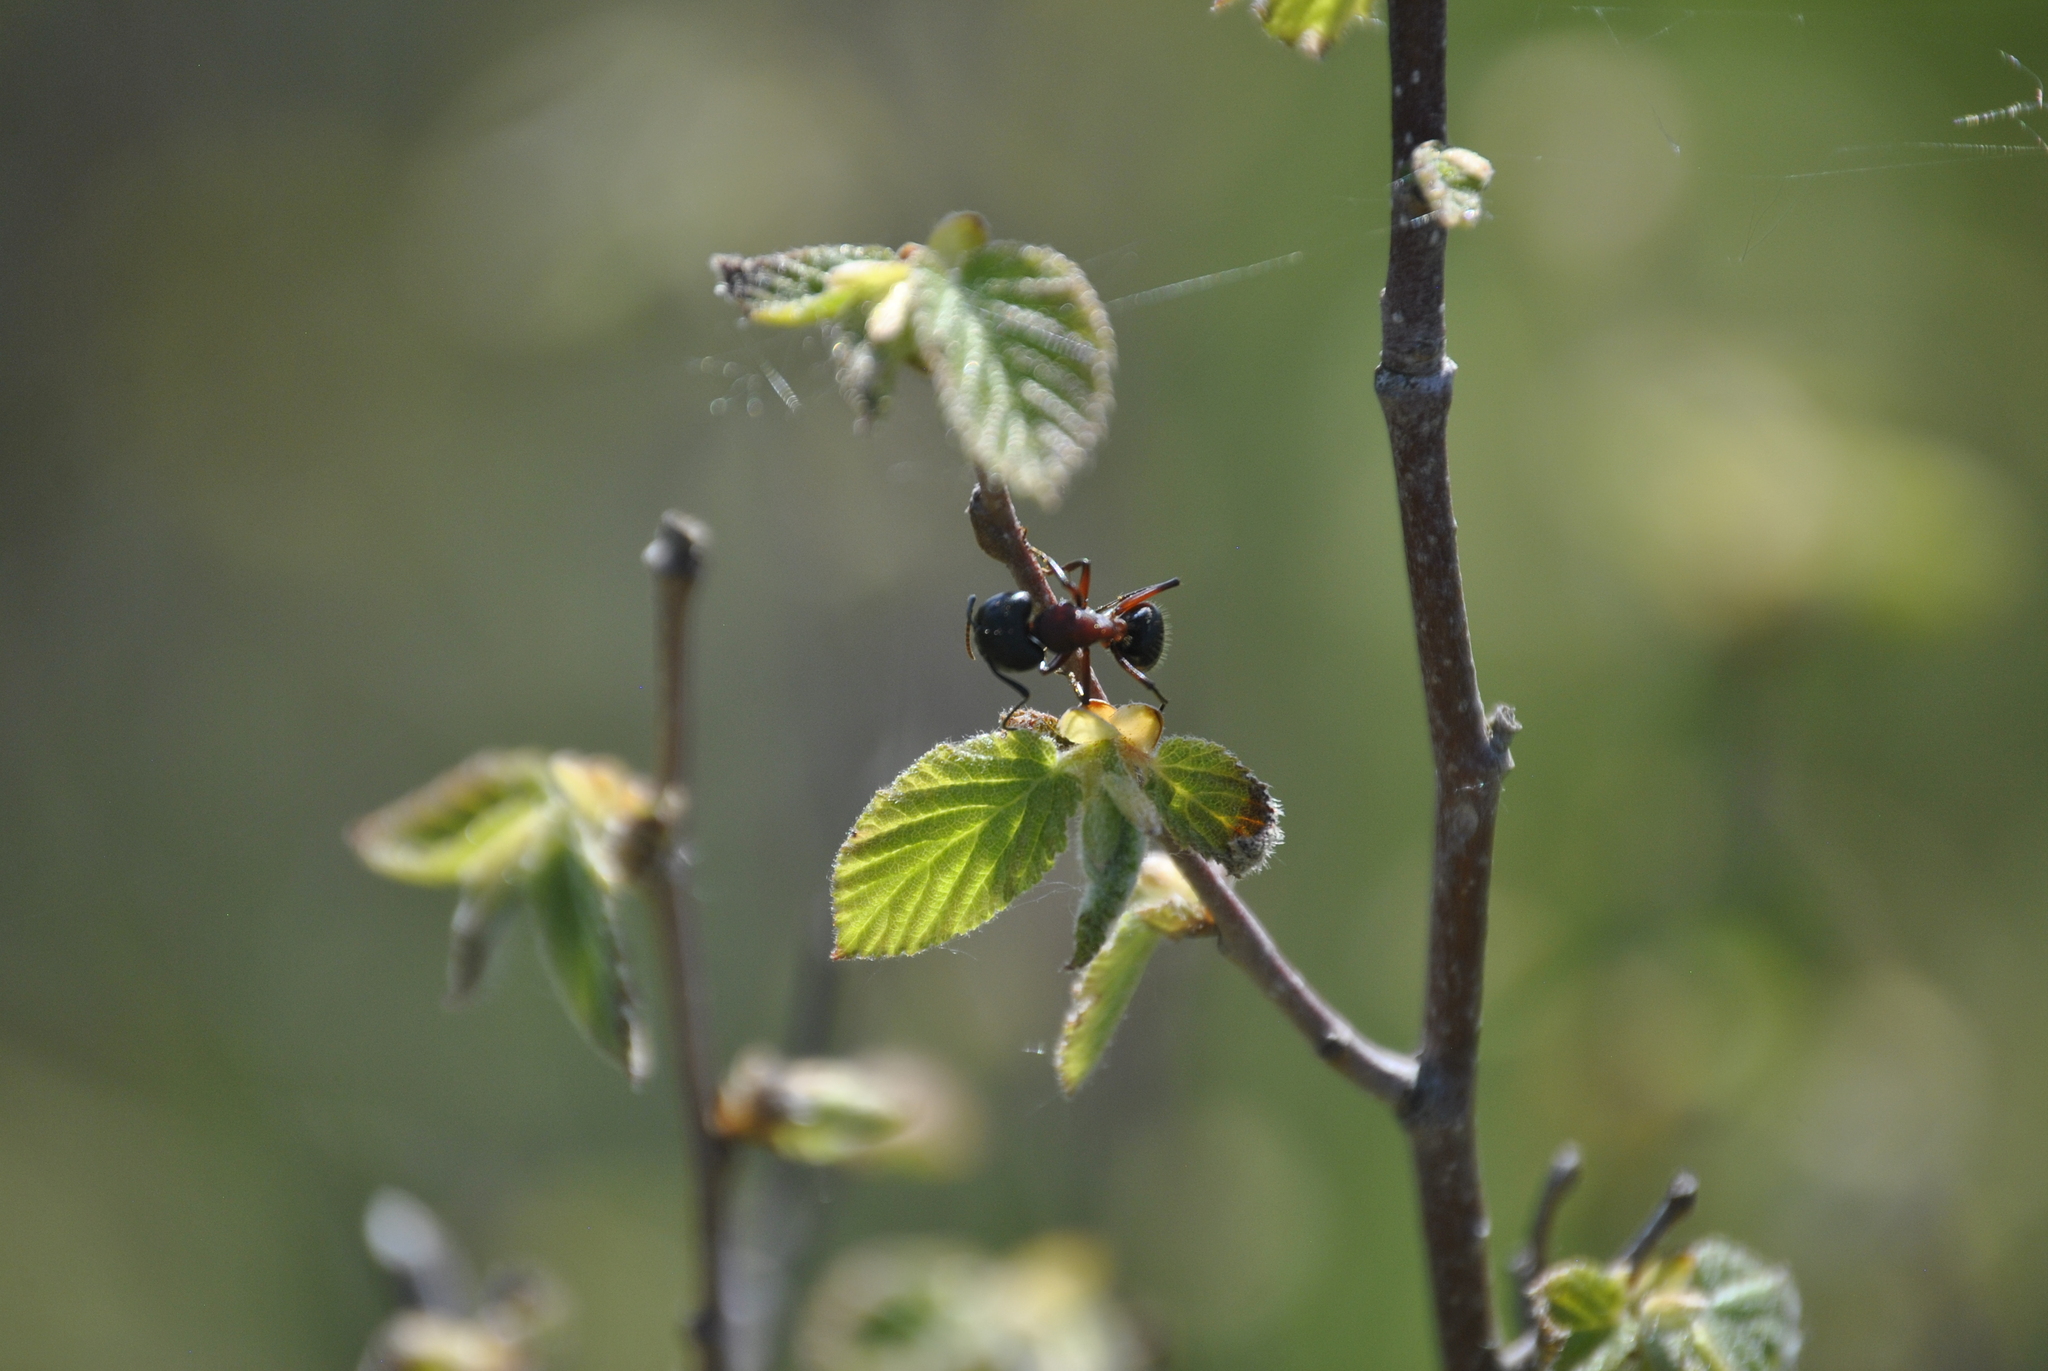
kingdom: Animalia
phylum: Arthropoda
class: Insecta
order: Hymenoptera
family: Formicidae
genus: Camponotus
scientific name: Camponotus novaeboracensis
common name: New york carpenter ant
